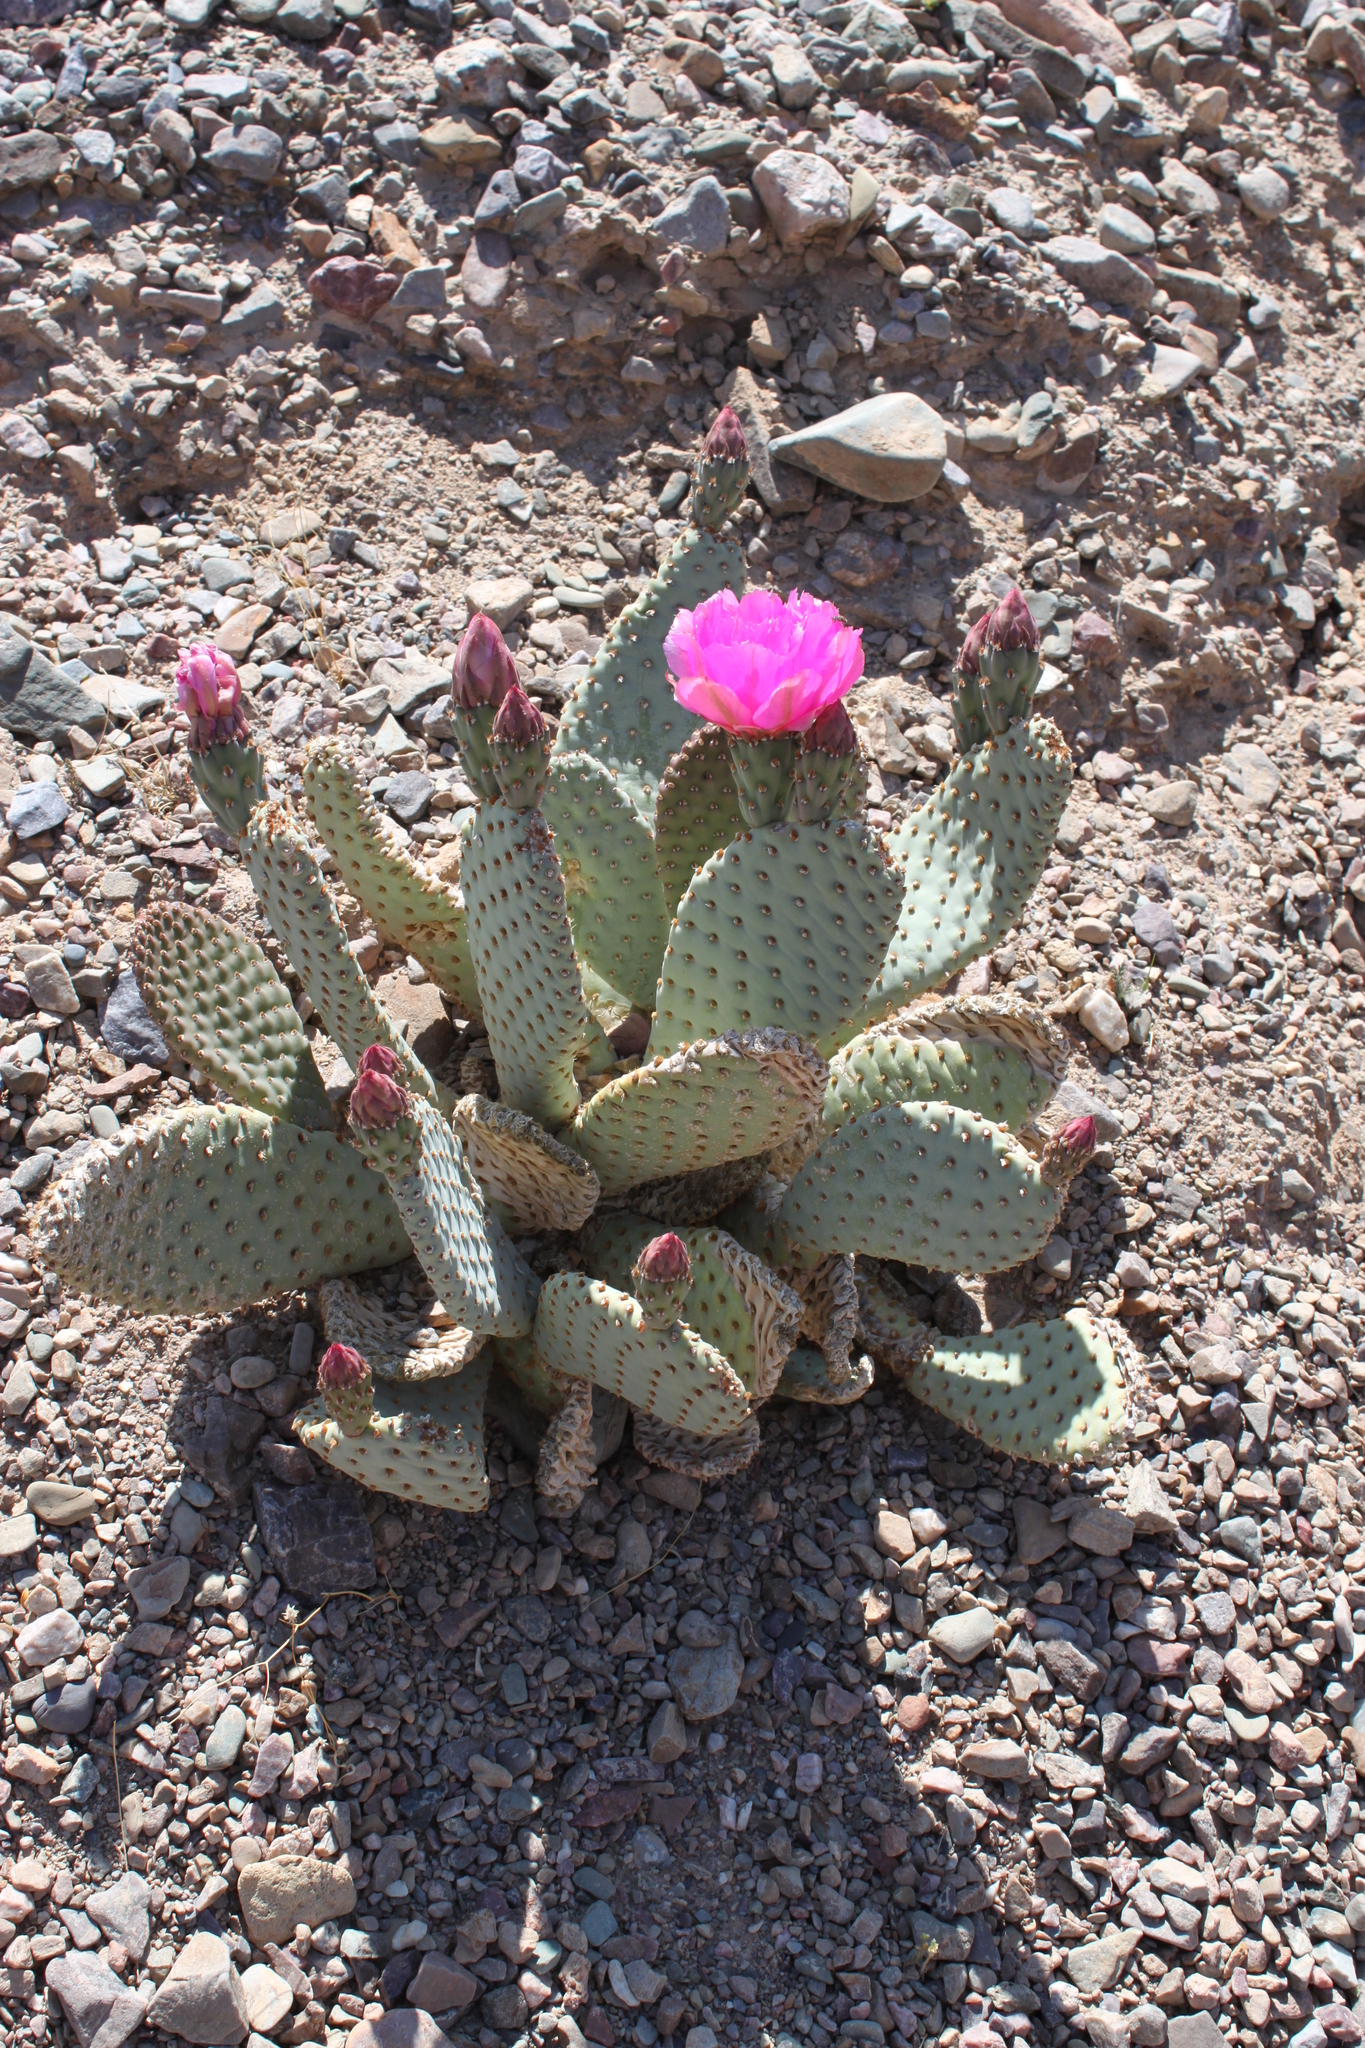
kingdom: Plantae
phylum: Tracheophyta
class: Magnoliopsida
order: Caryophyllales
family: Cactaceae
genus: Opuntia
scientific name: Opuntia basilaris
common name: Beavertail prickly-pear
